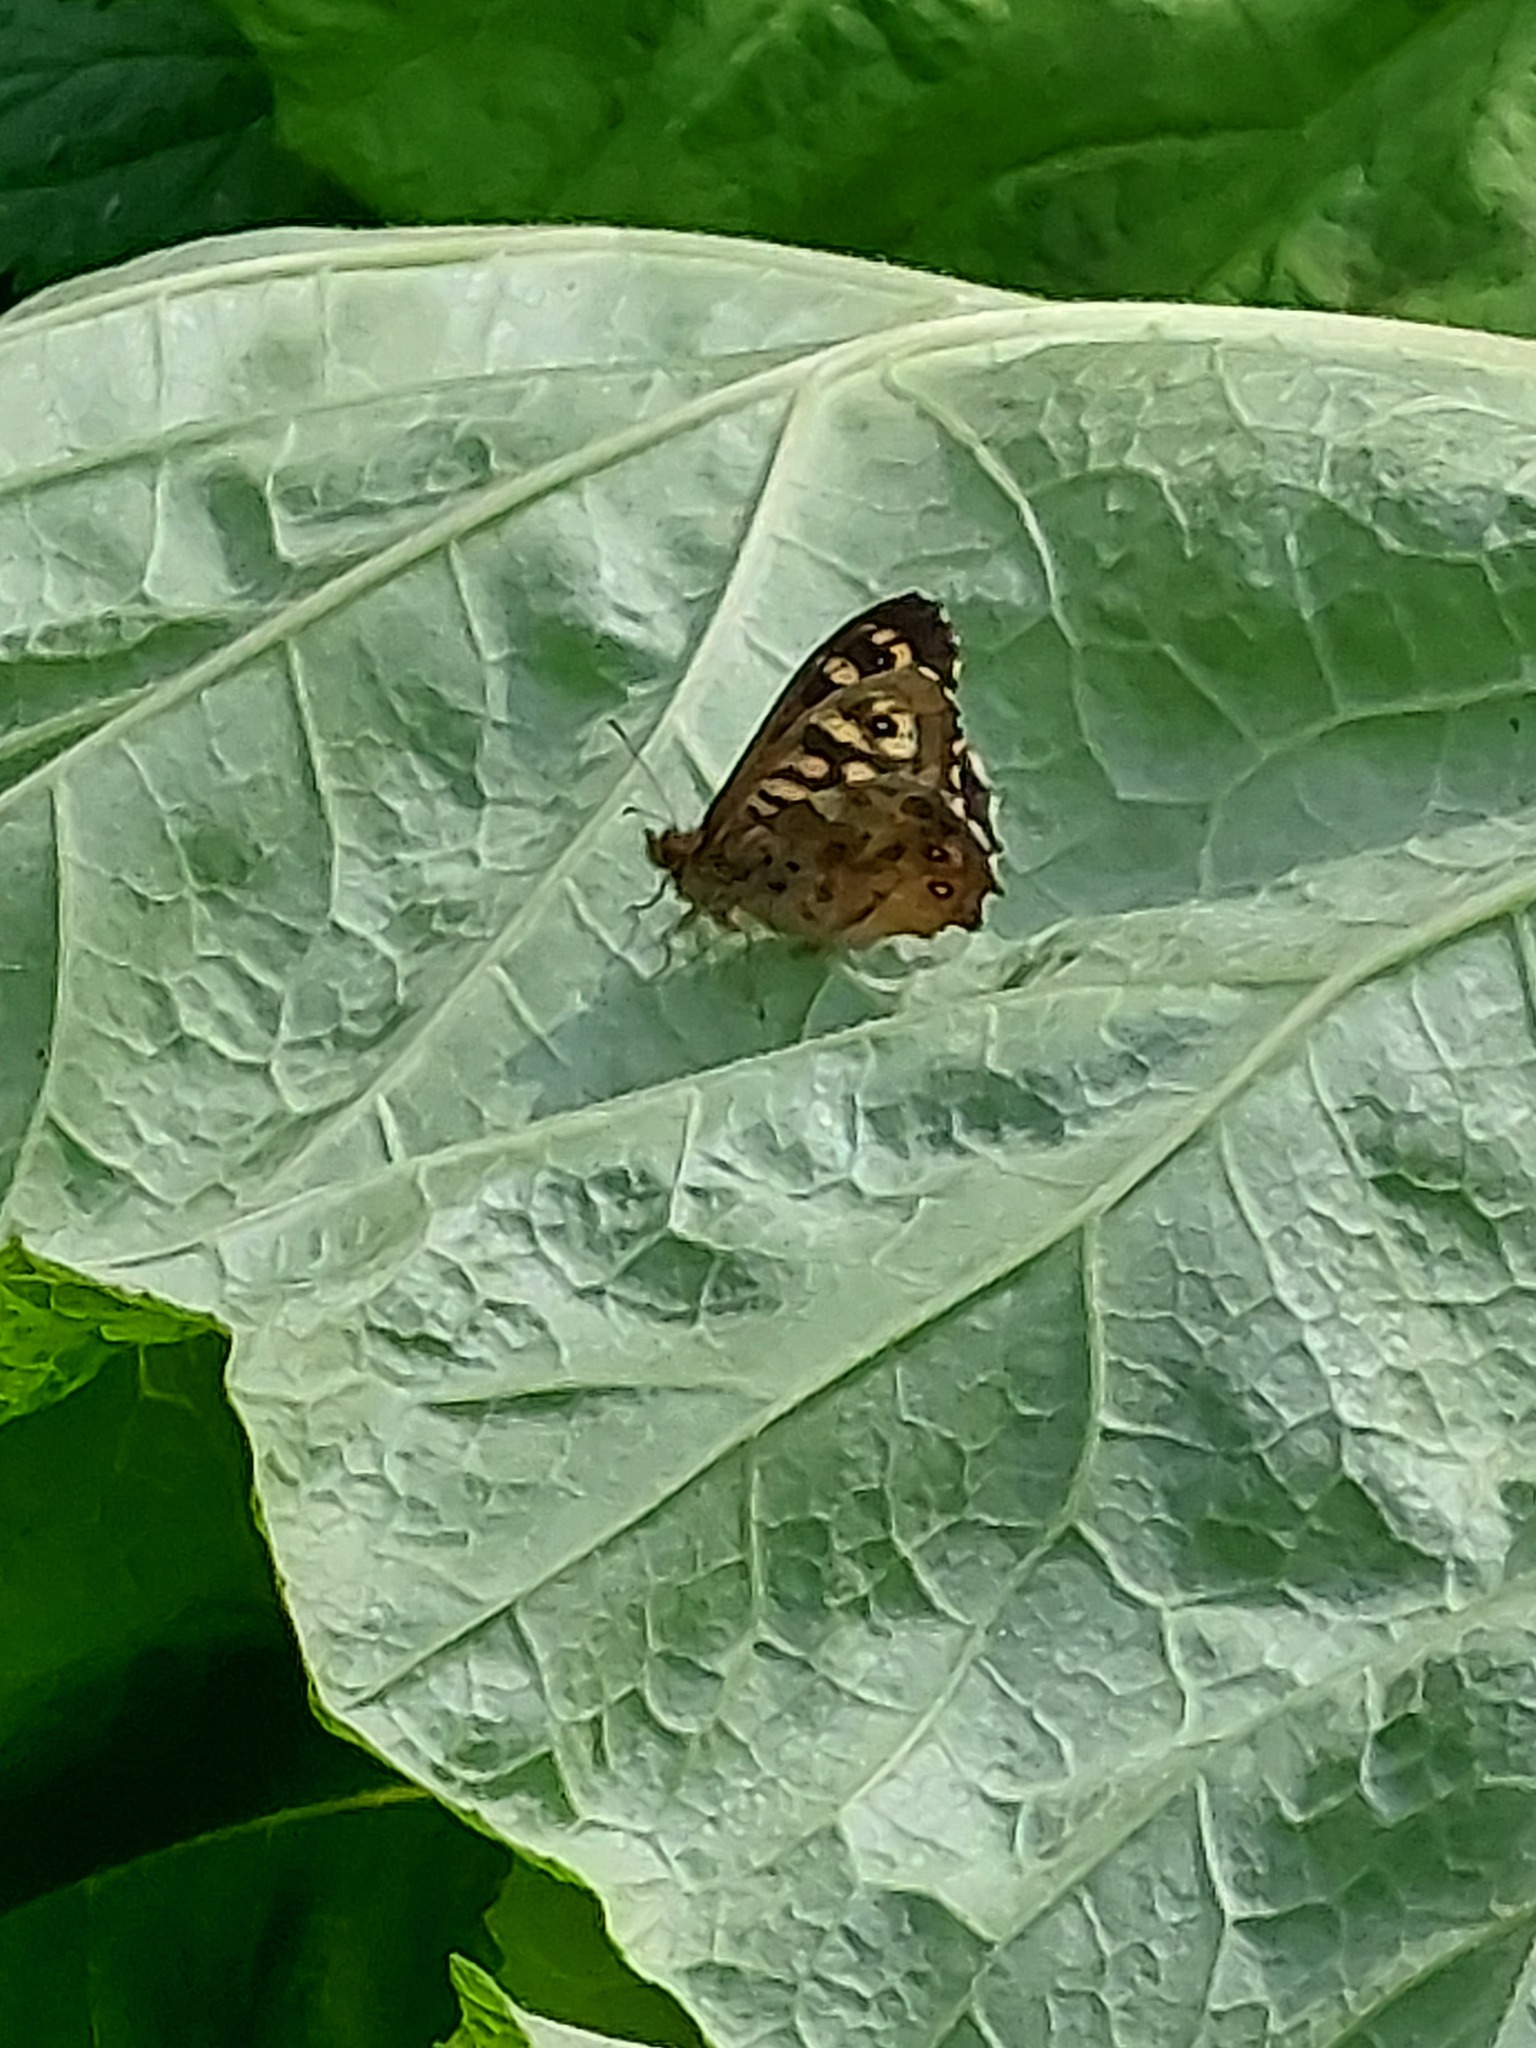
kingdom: Animalia
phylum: Arthropoda
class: Insecta
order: Lepidoptera
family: Nymphalidae
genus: Pararge
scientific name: Pararge aegeria
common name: Speckled wood
